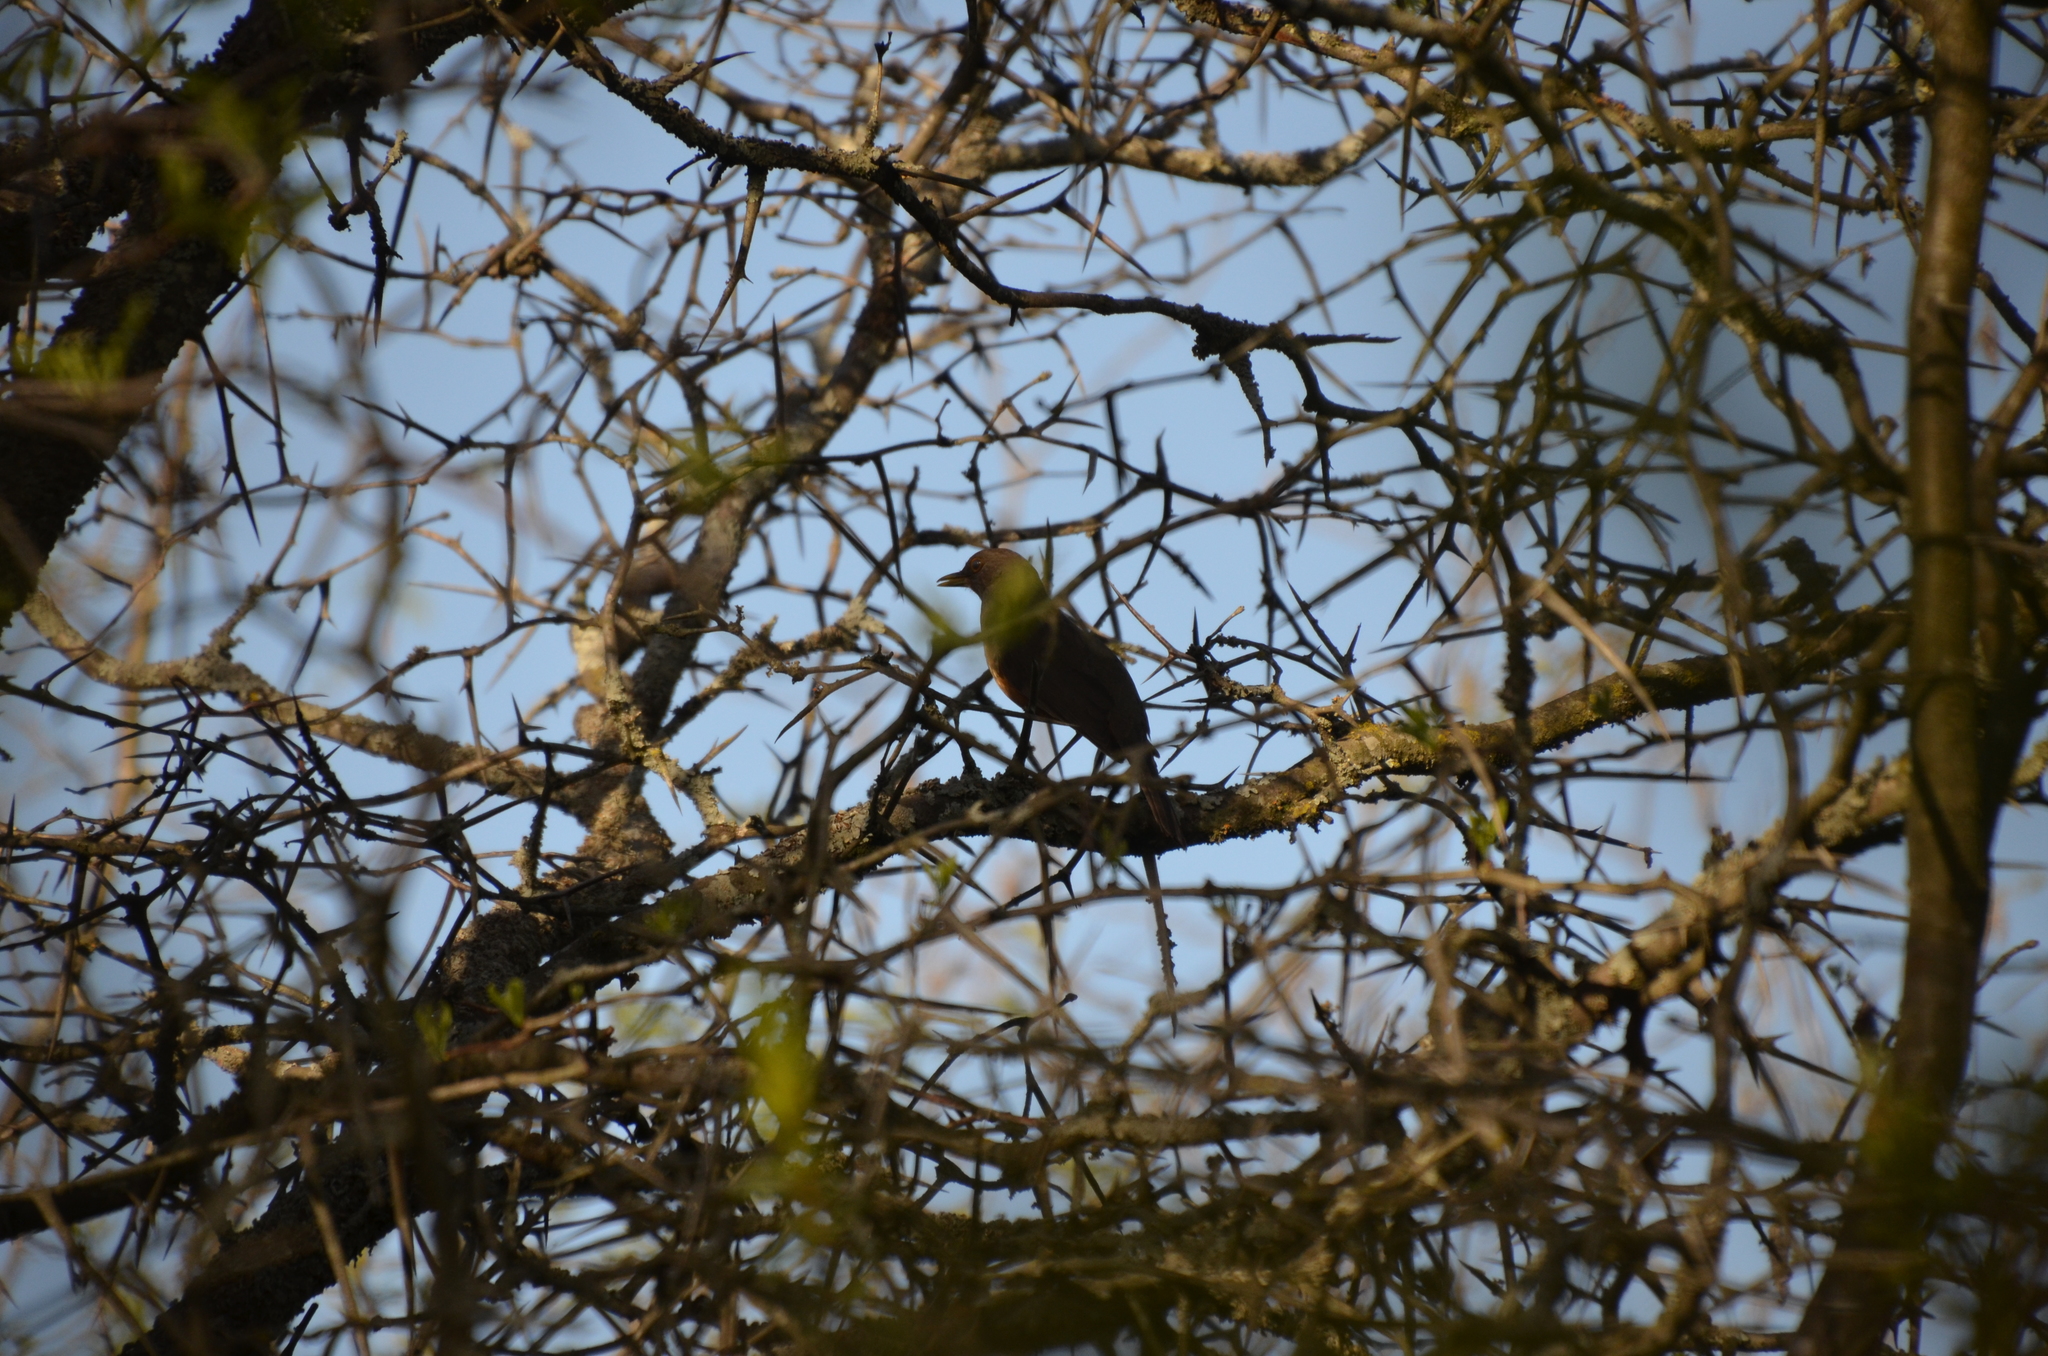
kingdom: Animalia
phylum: Chordata
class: Aves
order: Passeriformes
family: Turdidae
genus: Turdus
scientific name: Turdus rufiventris
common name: Rufous-bellied thrush
